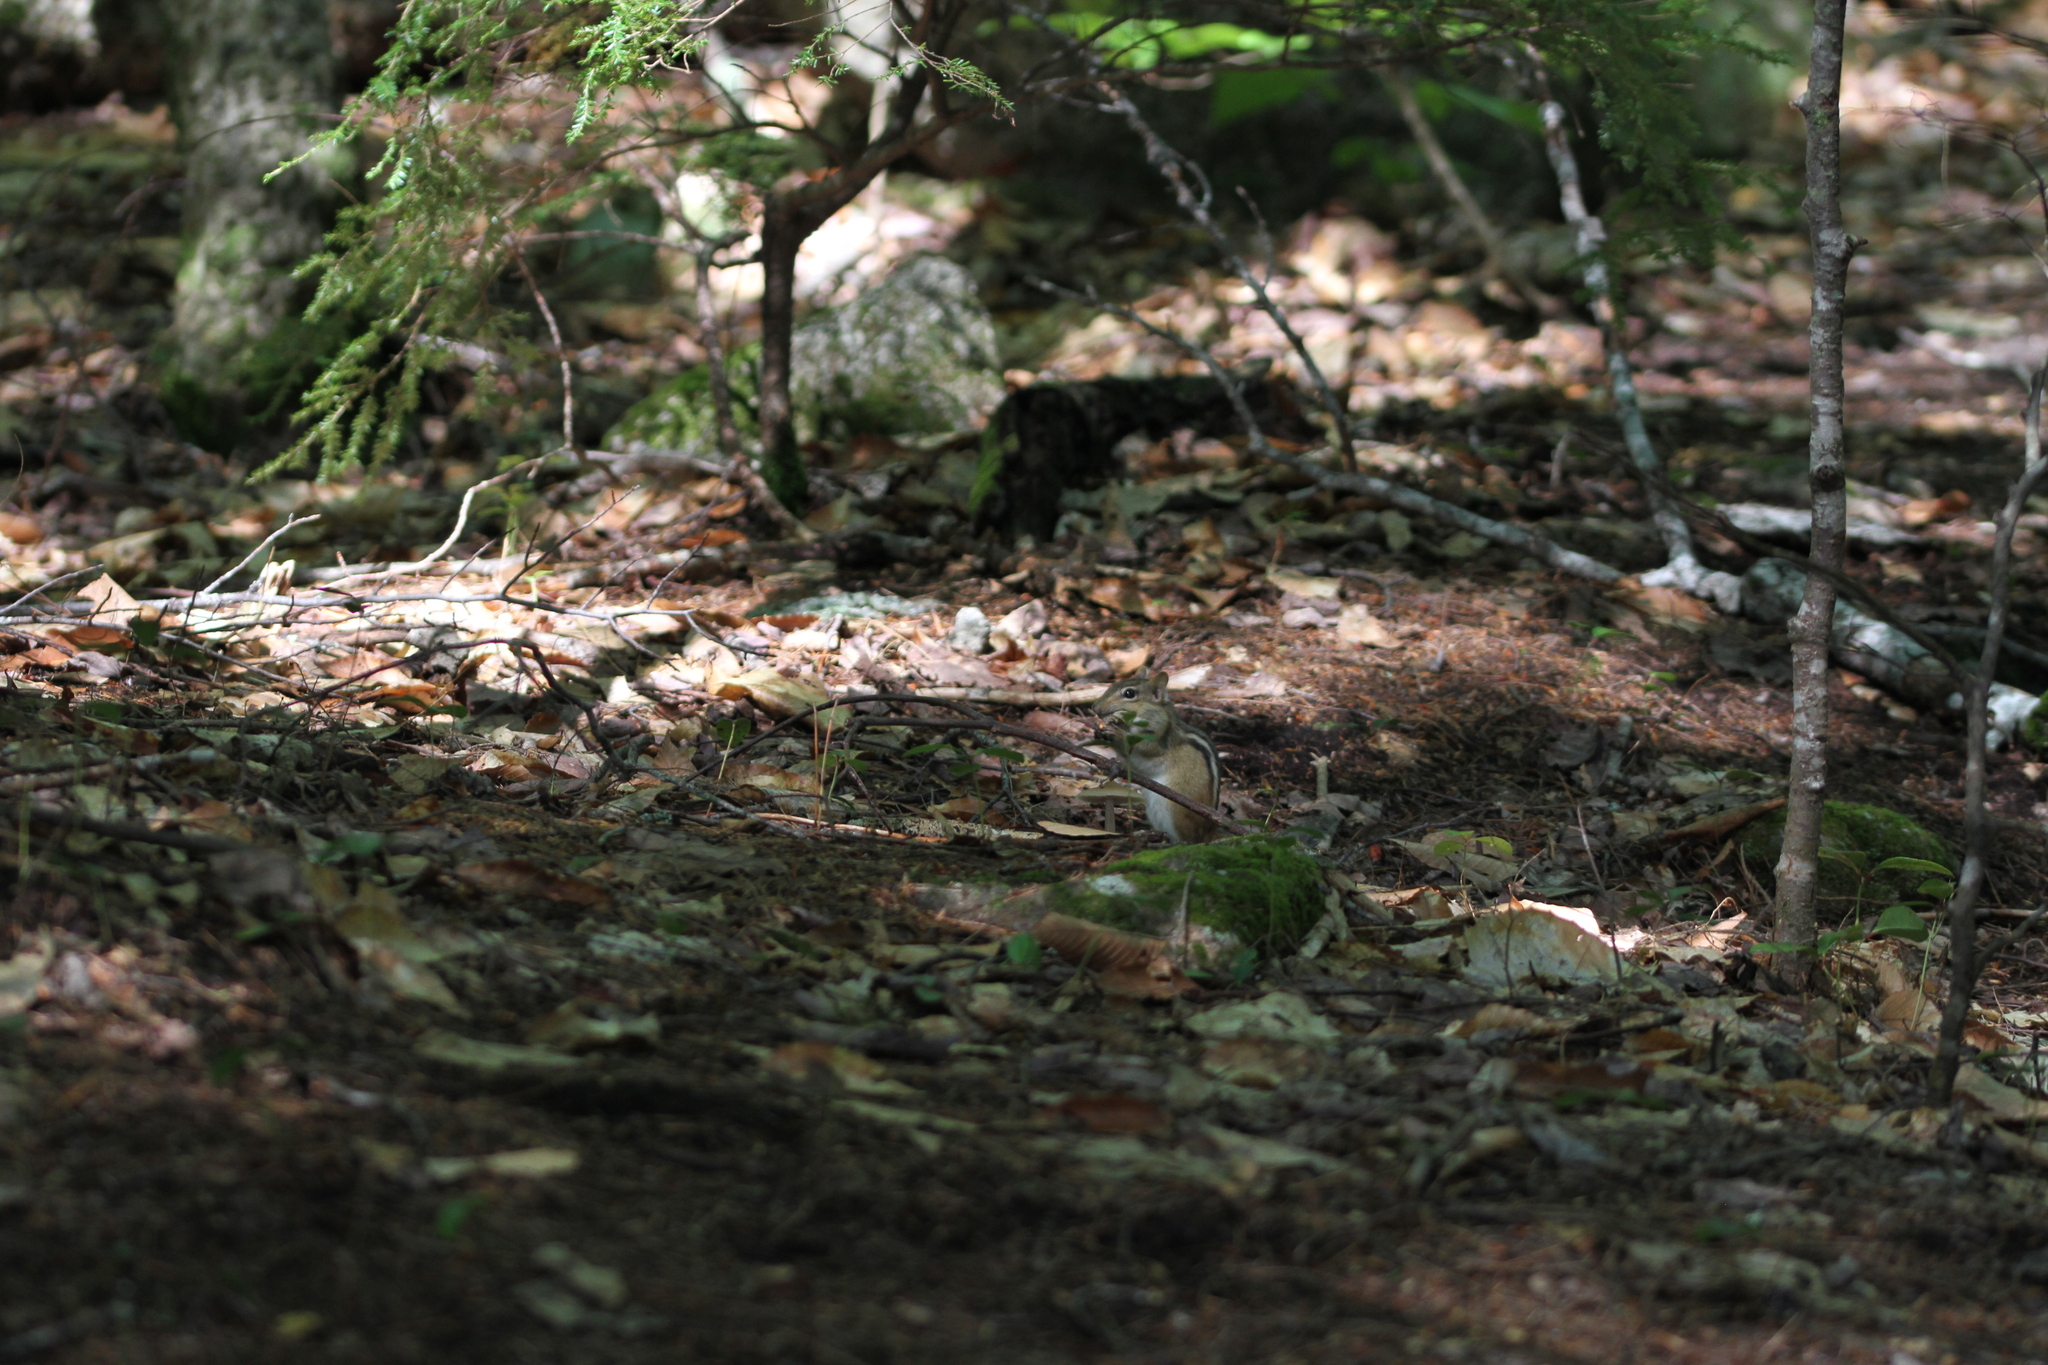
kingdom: Animalia
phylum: Chordata
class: Mammalia
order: Rodentia
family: Sciuridae
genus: Tamias
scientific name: Tamias striatus
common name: Eastern chipmunk
